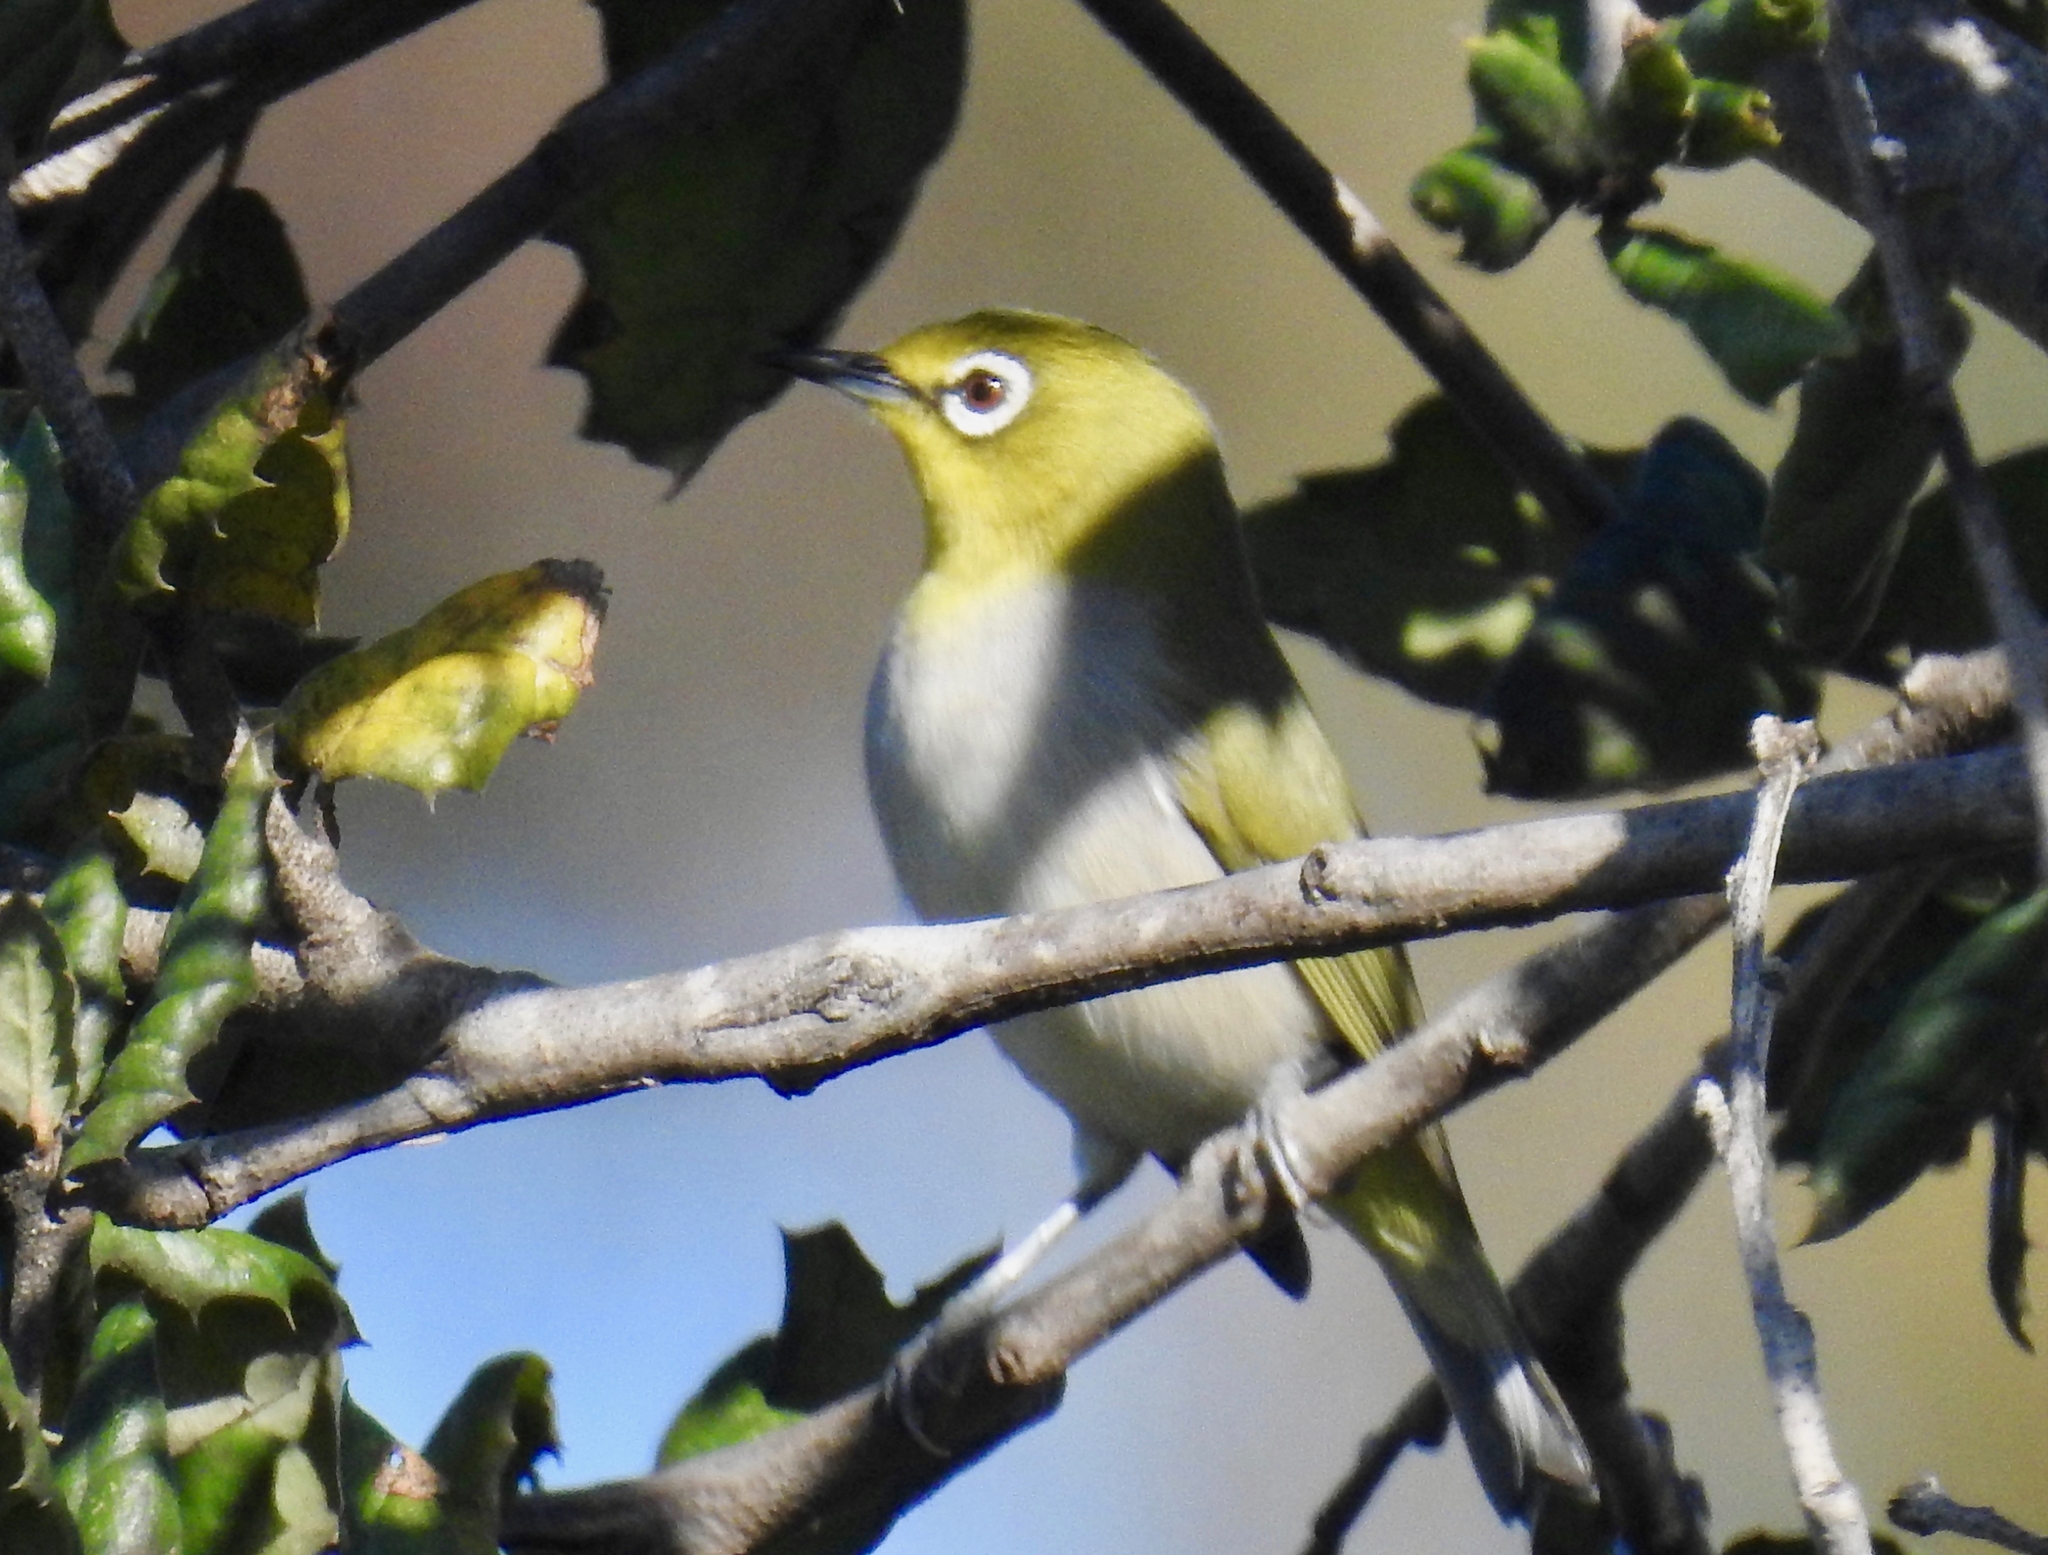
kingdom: Animalia
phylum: Chordata
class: Aves
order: Passeriformes
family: Zosteropidae
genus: Zosterops
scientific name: Zosterops simplex
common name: Swinhoe's white-eye
